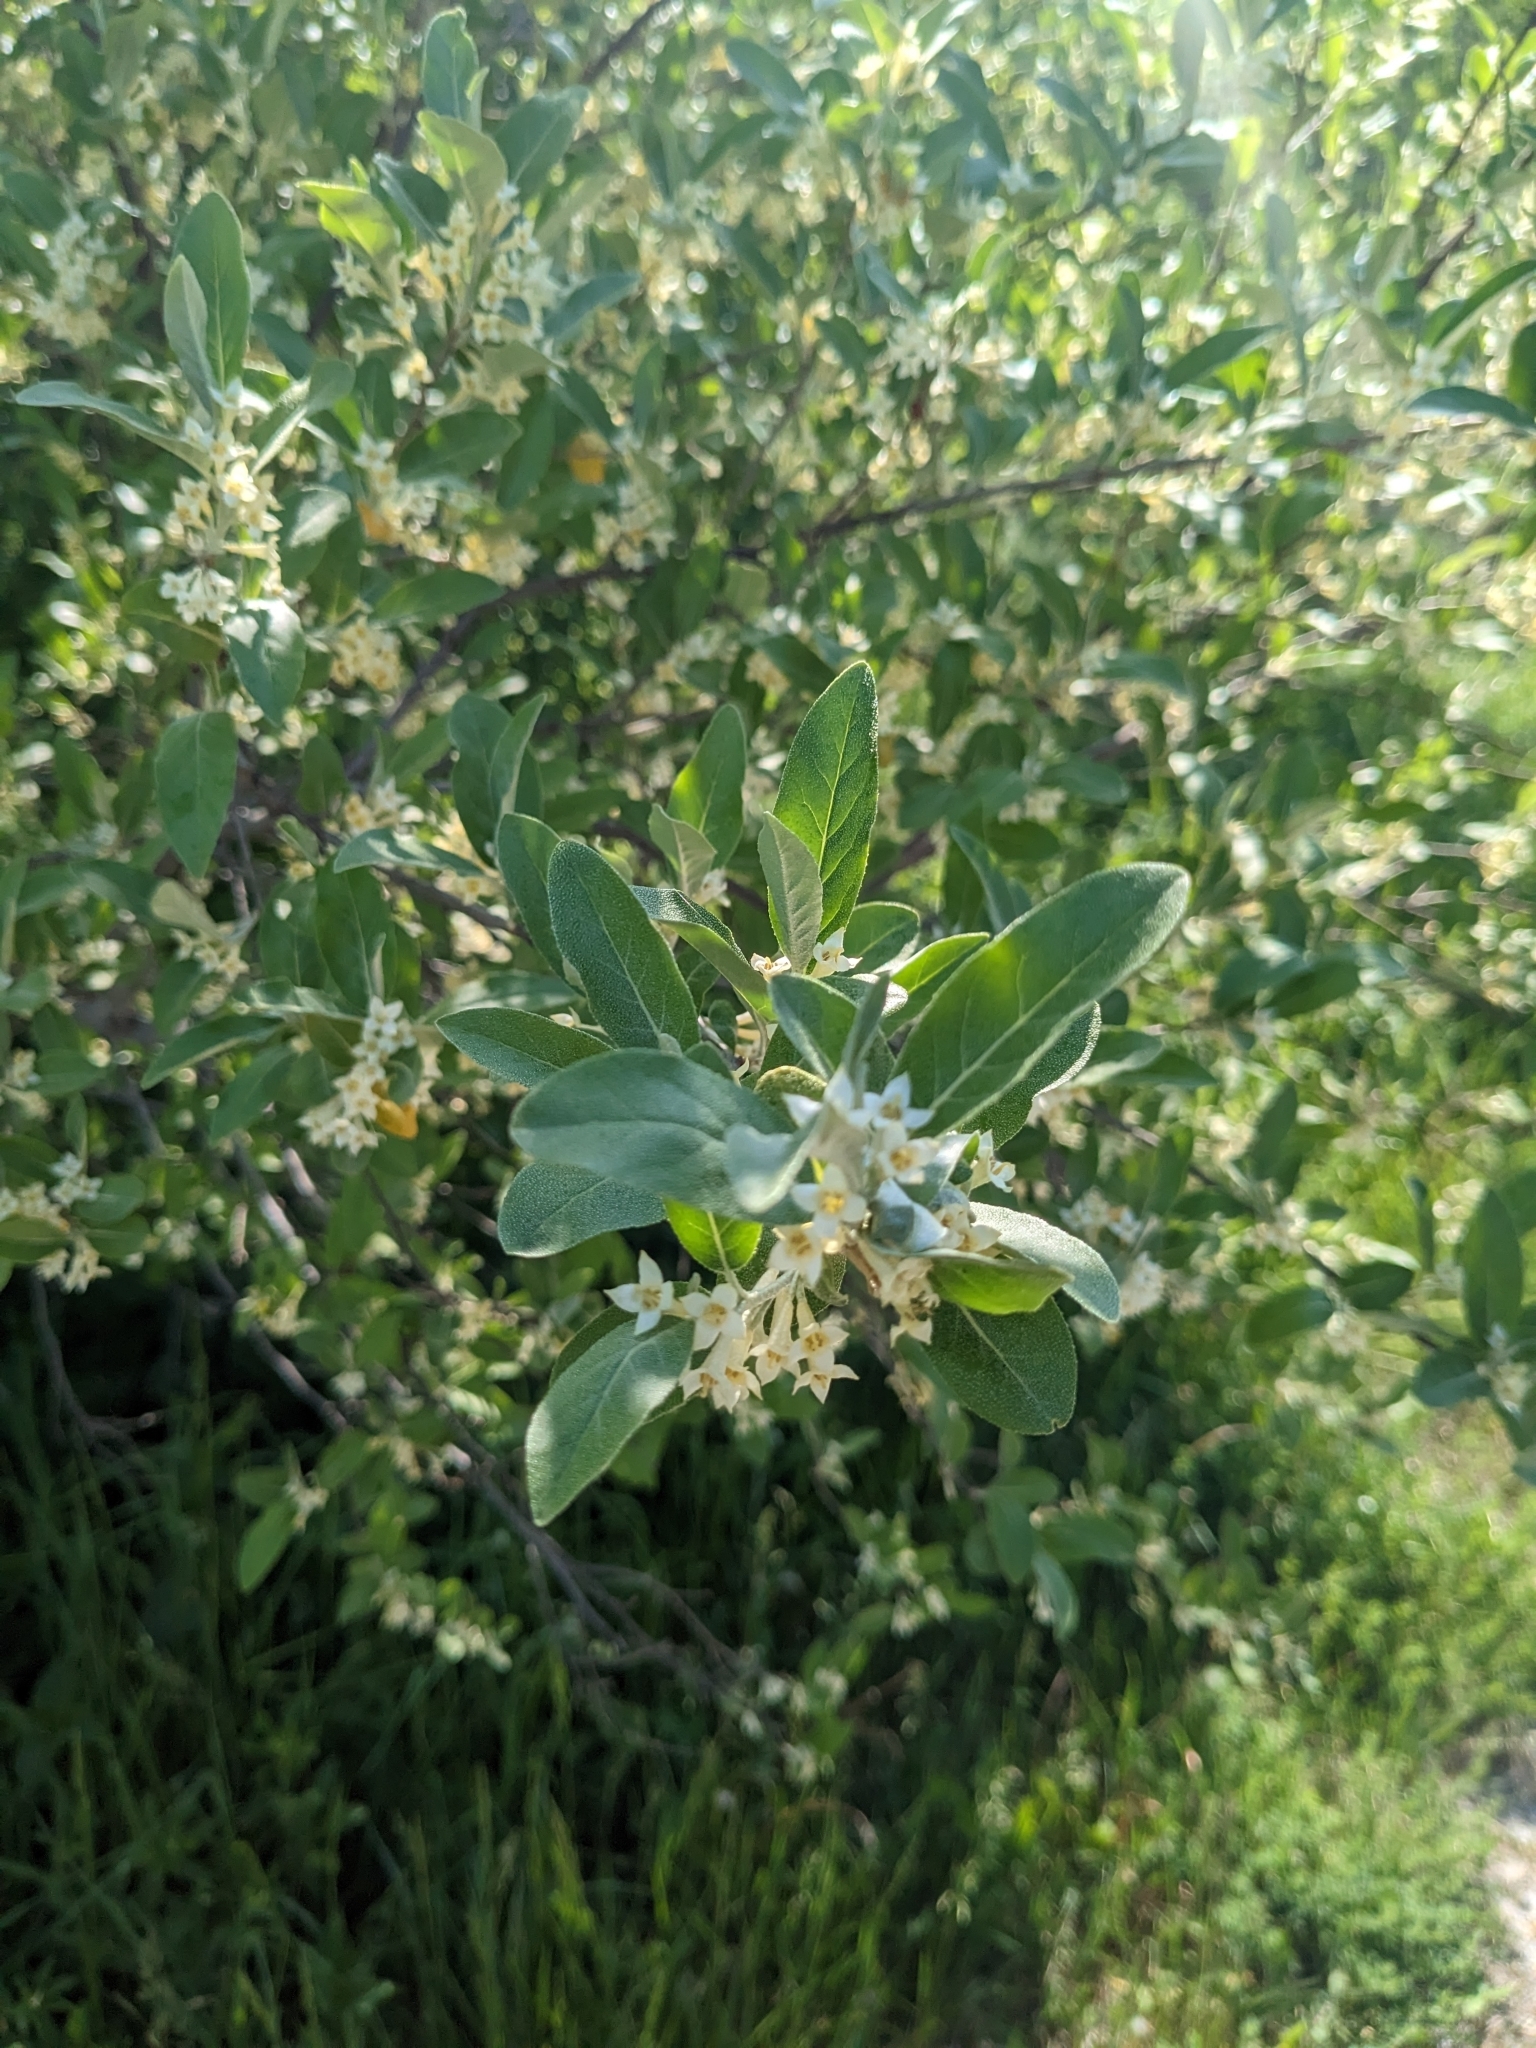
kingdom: Plantae
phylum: Tracheophyta
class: Magnoliopsida
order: Rosales
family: Elaeagnaceae
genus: Elaeagnus
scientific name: Elaeagnus umbellata
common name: Autumn olive
